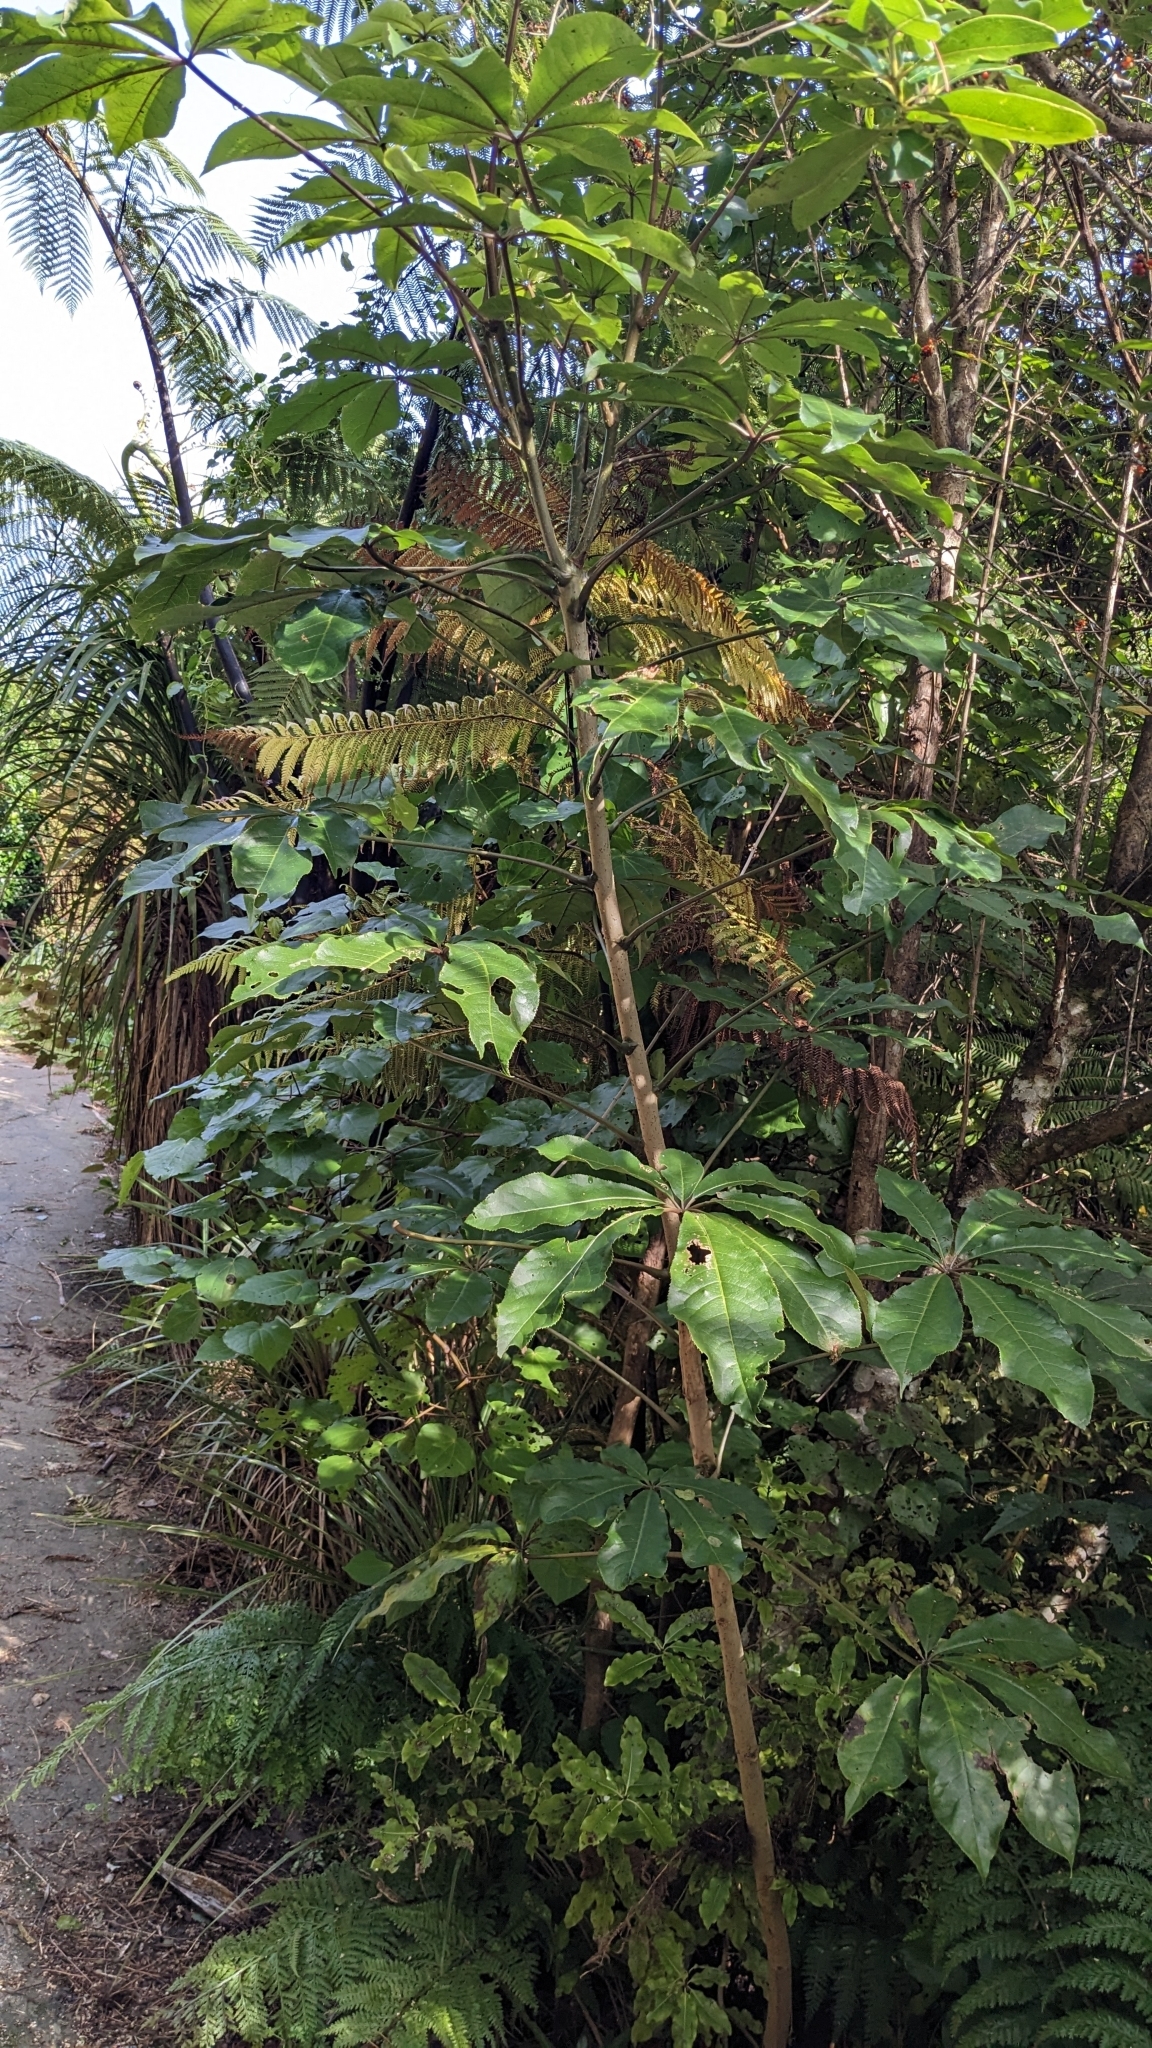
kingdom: Plantae
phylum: Tracheophyta
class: Magnoliopsida
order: Apiales
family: Araliaceae
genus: Schefflera
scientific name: Schefflera digitata
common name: Pate
